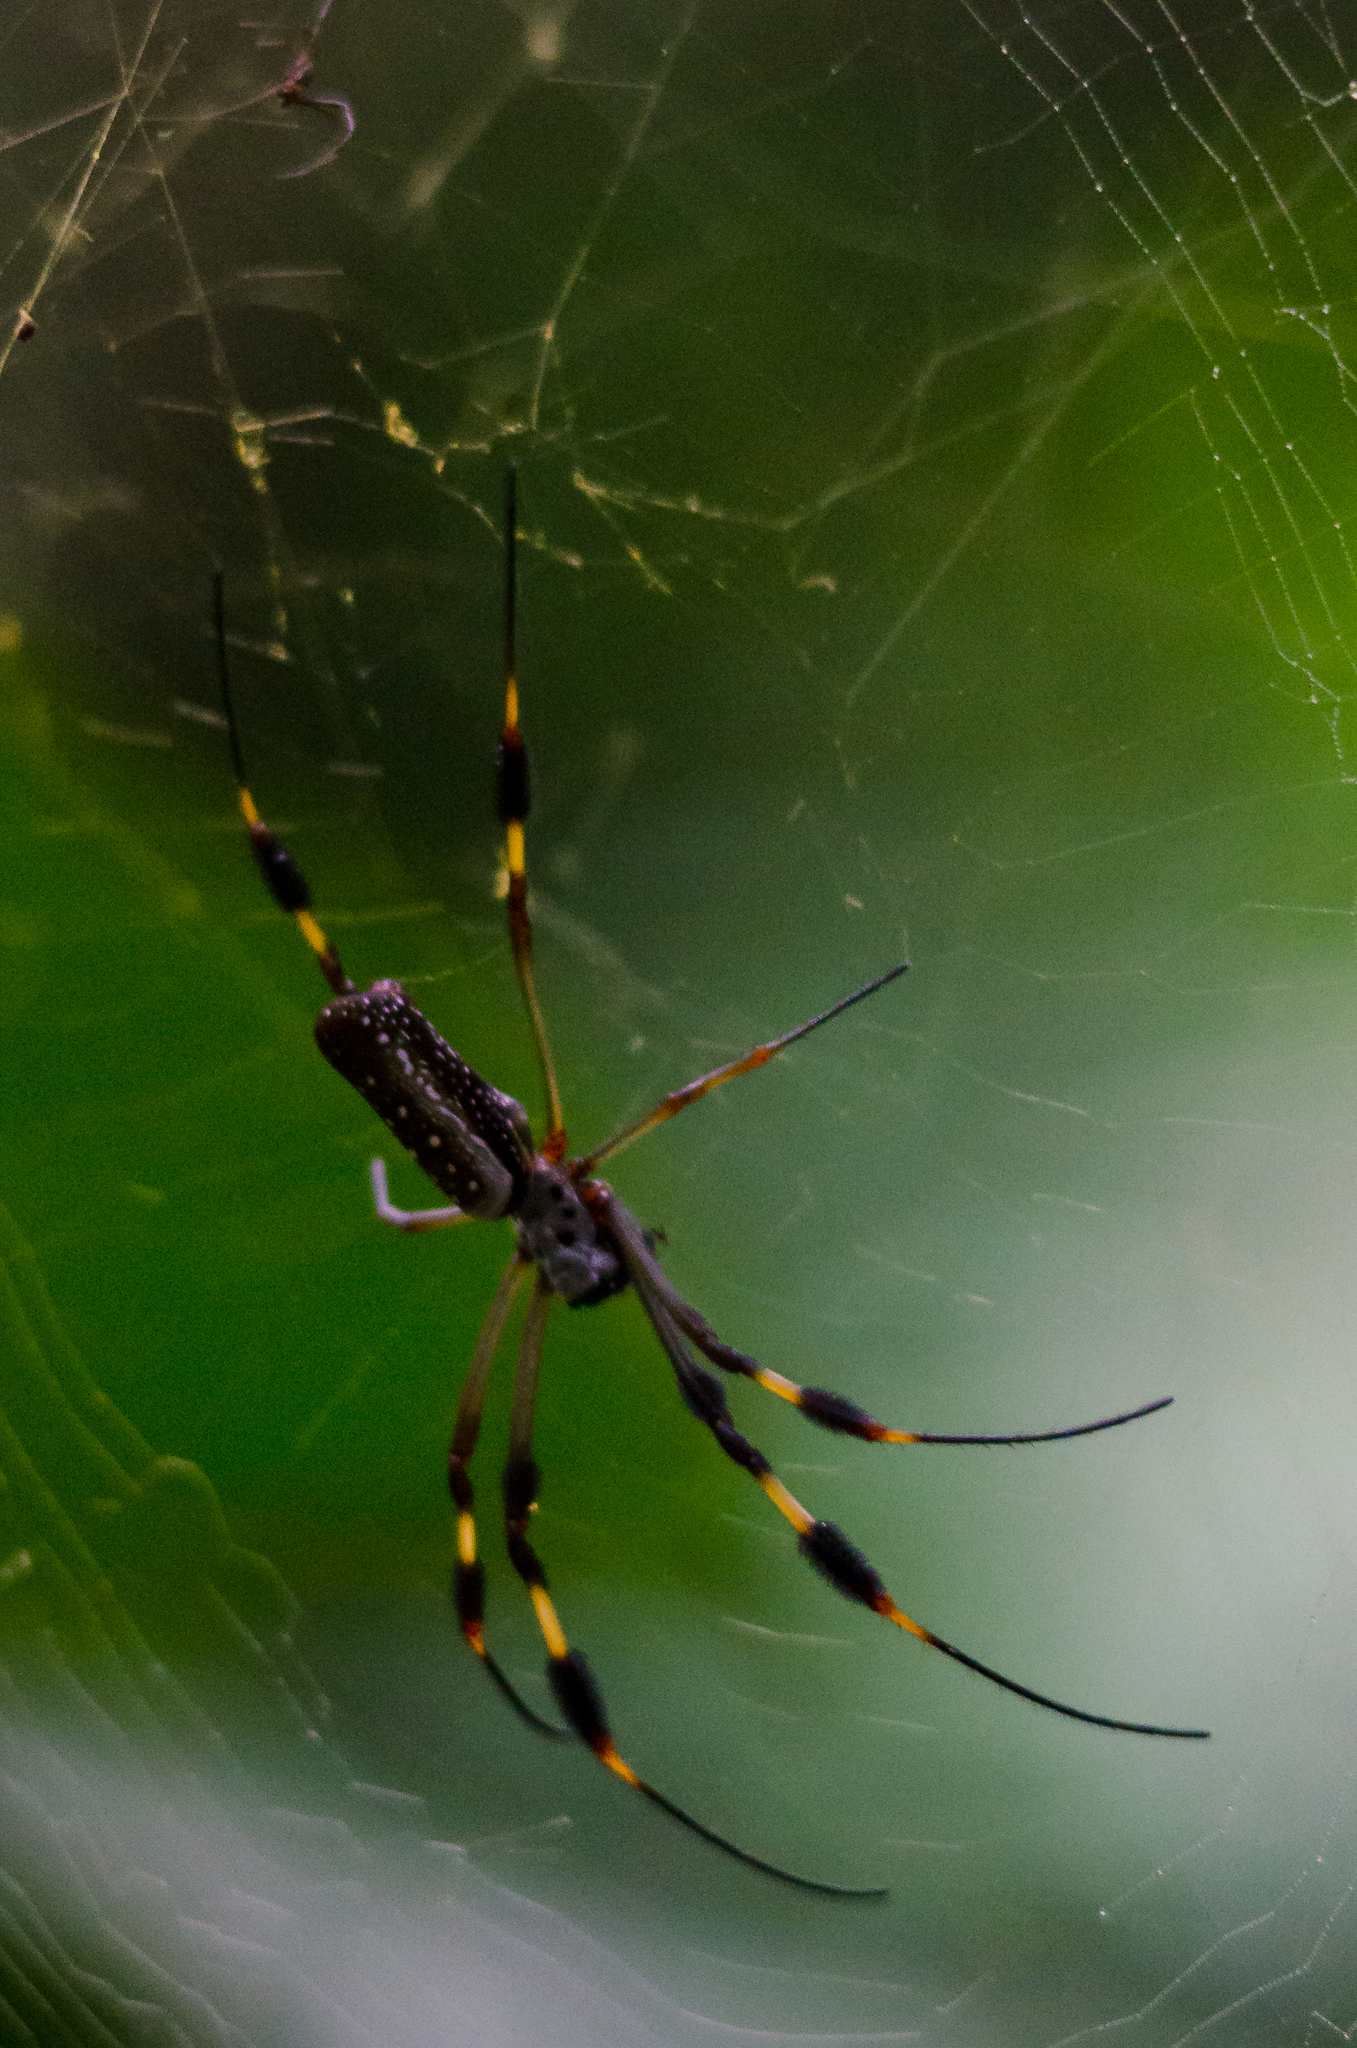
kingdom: Animalia
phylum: Arthropoda
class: Arachnida
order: Araneae
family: Araneidae
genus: Trichonephila
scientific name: Trichonephila clavipes
